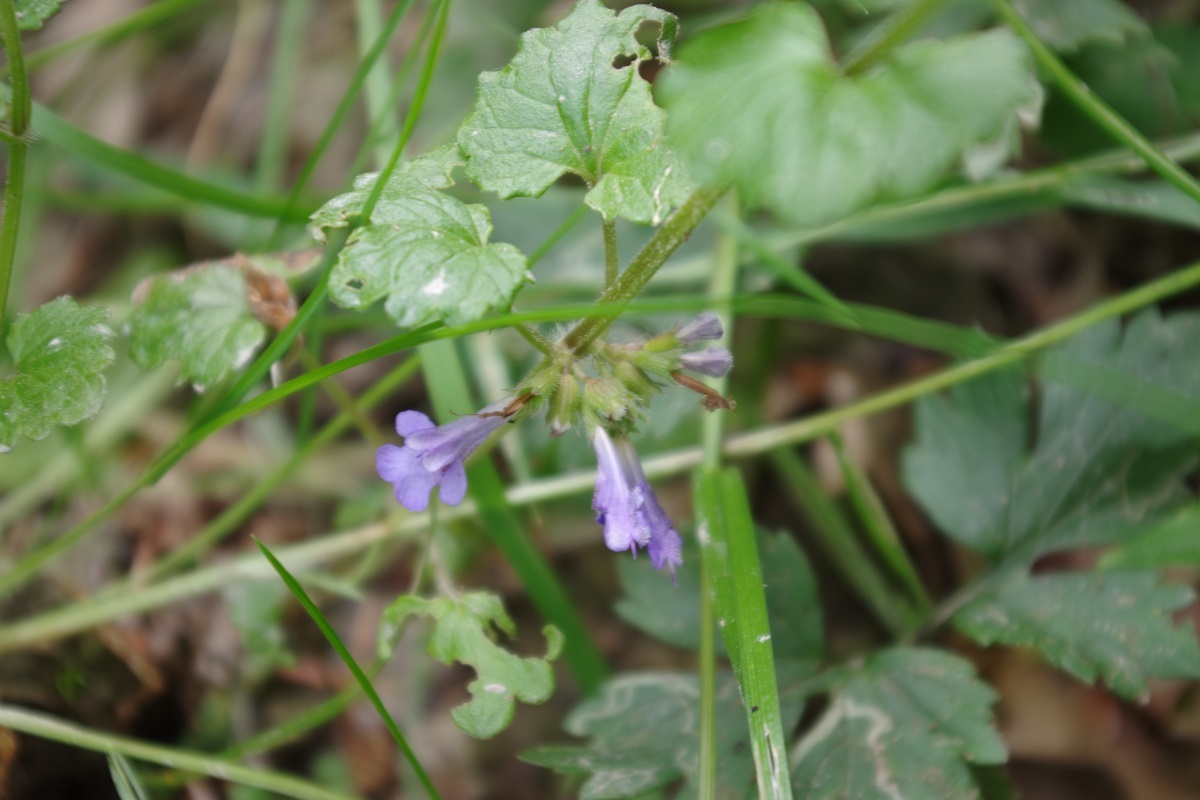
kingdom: Plantae
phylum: Tracheophyta
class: Magnoliopsida
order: Lamiales
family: Lamiaceae
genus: Glechoma
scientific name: Glechoma hederacea
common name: Ground ivy
